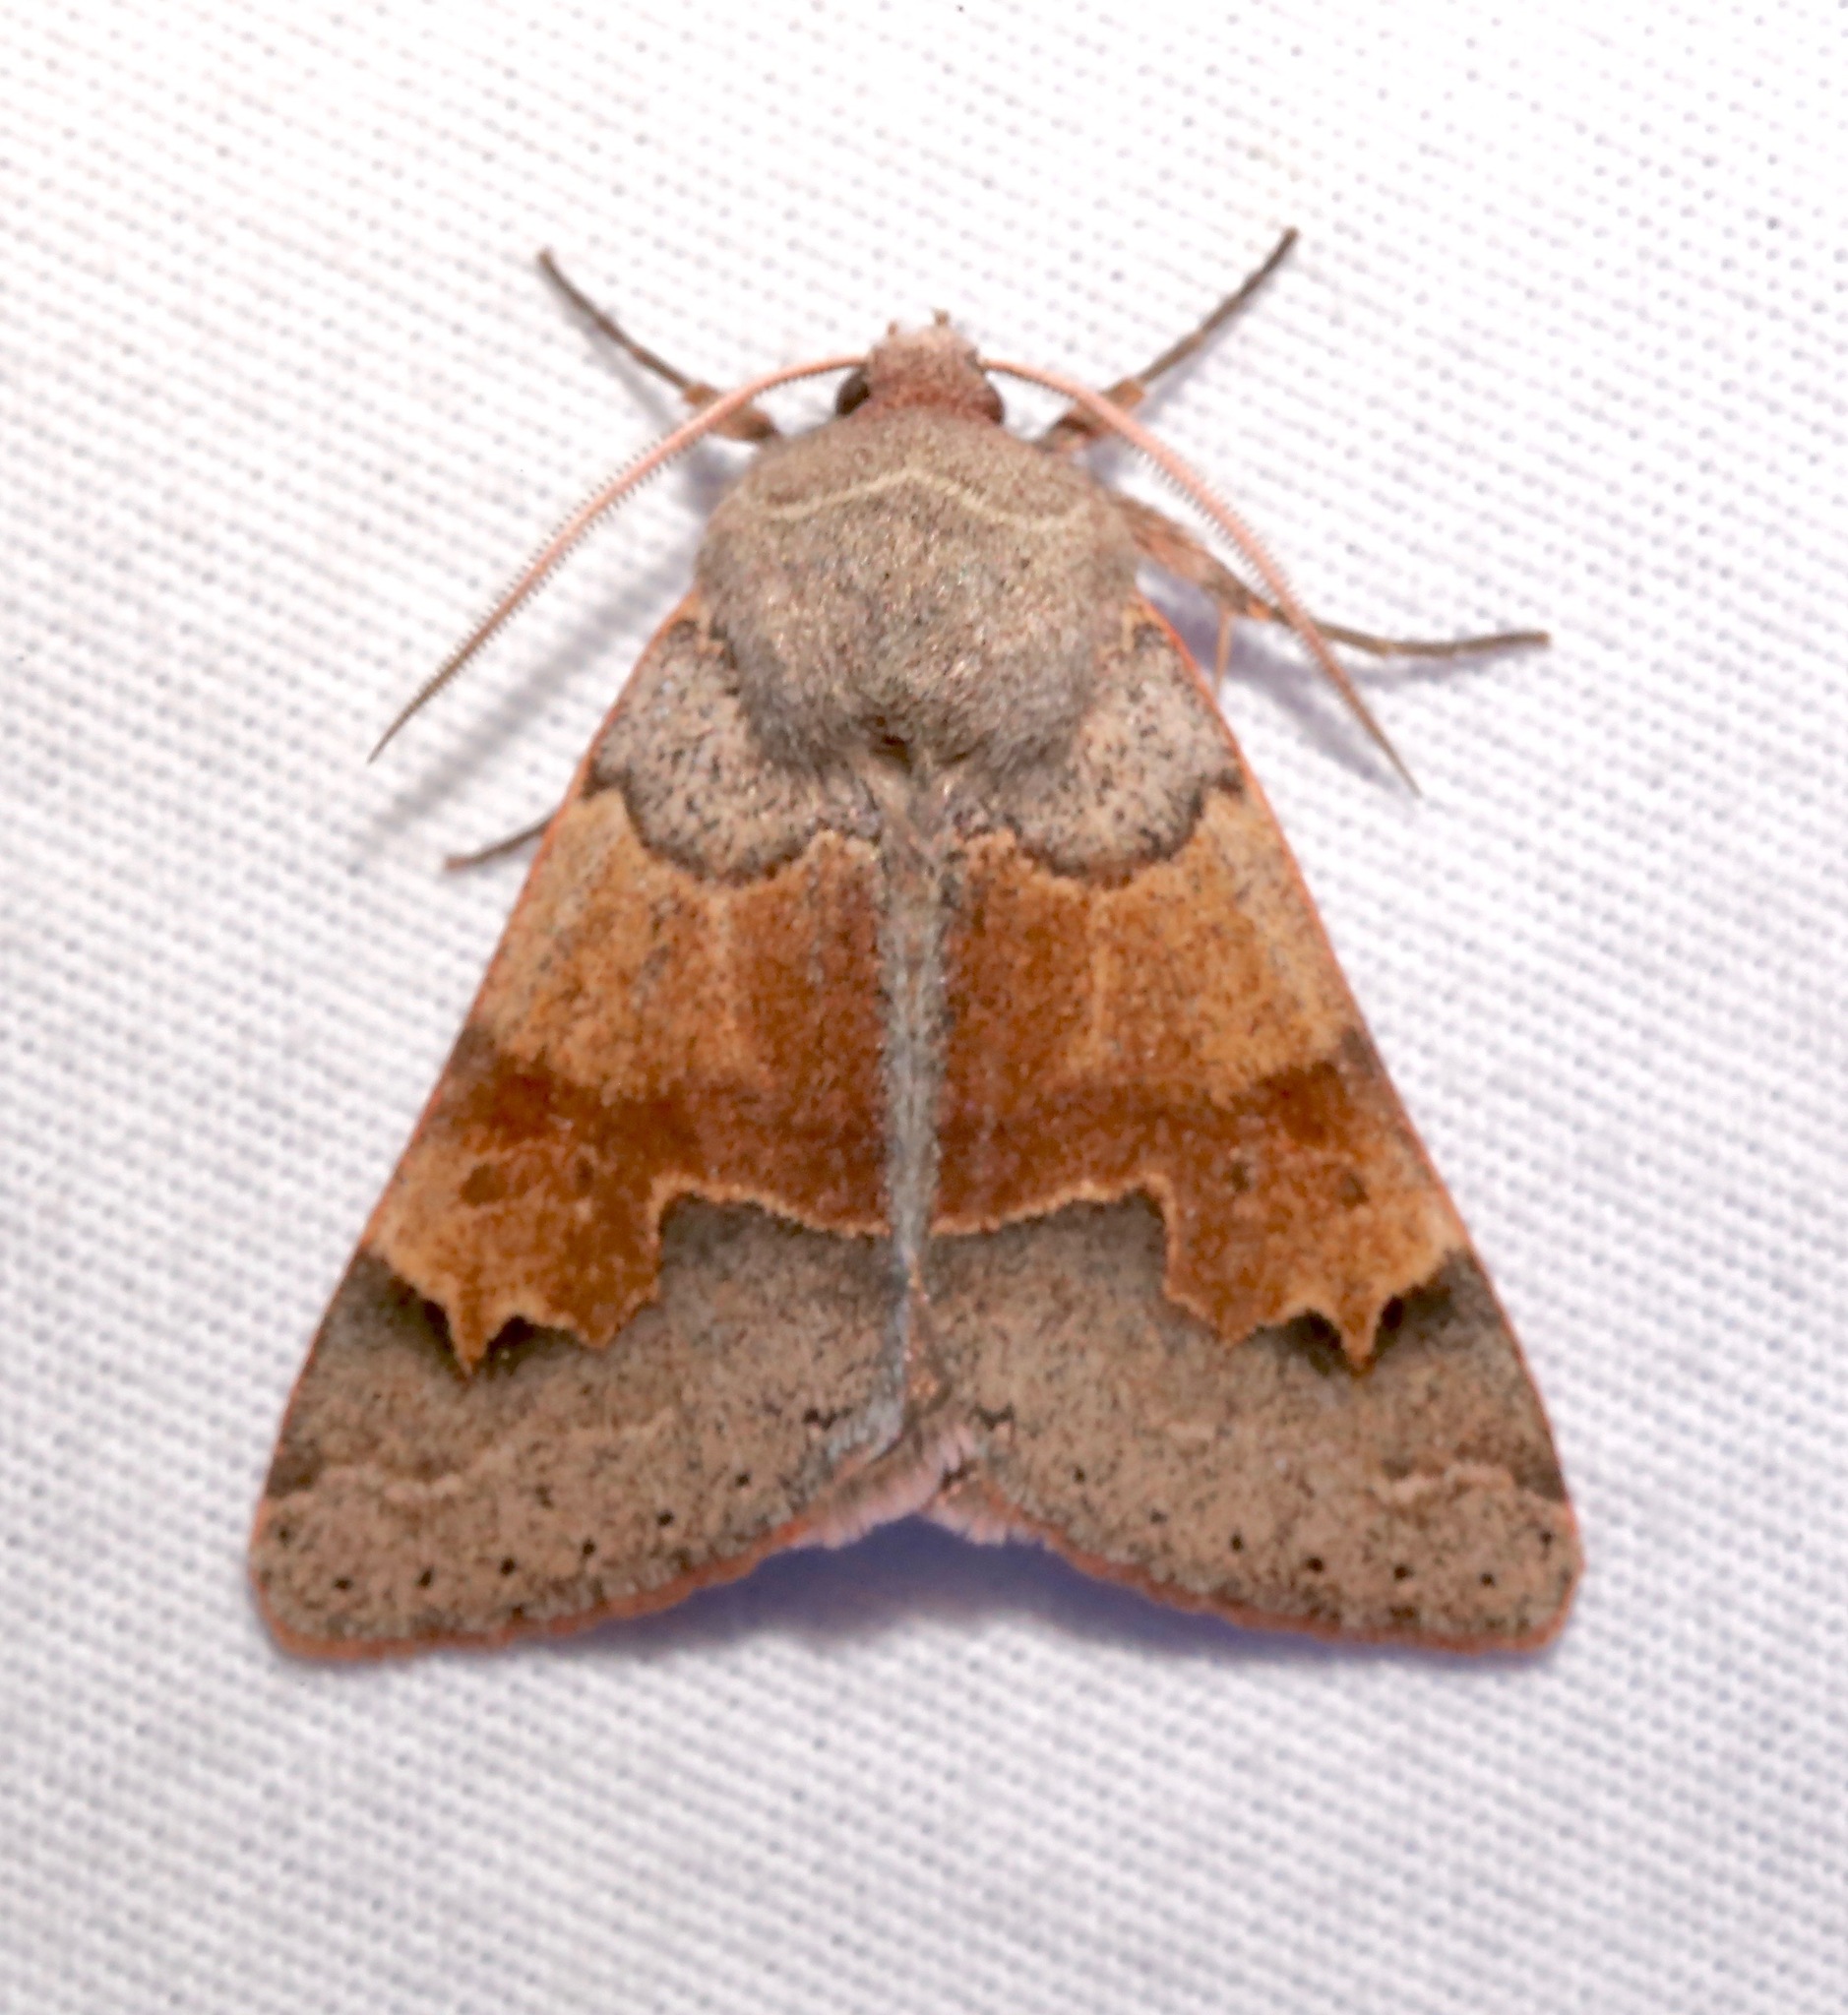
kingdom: Animalia
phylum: Arthropoda
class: Insecta
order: Lepidoptera
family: Erebidae
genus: Ulosyneda
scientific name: Ulosyneda valens
